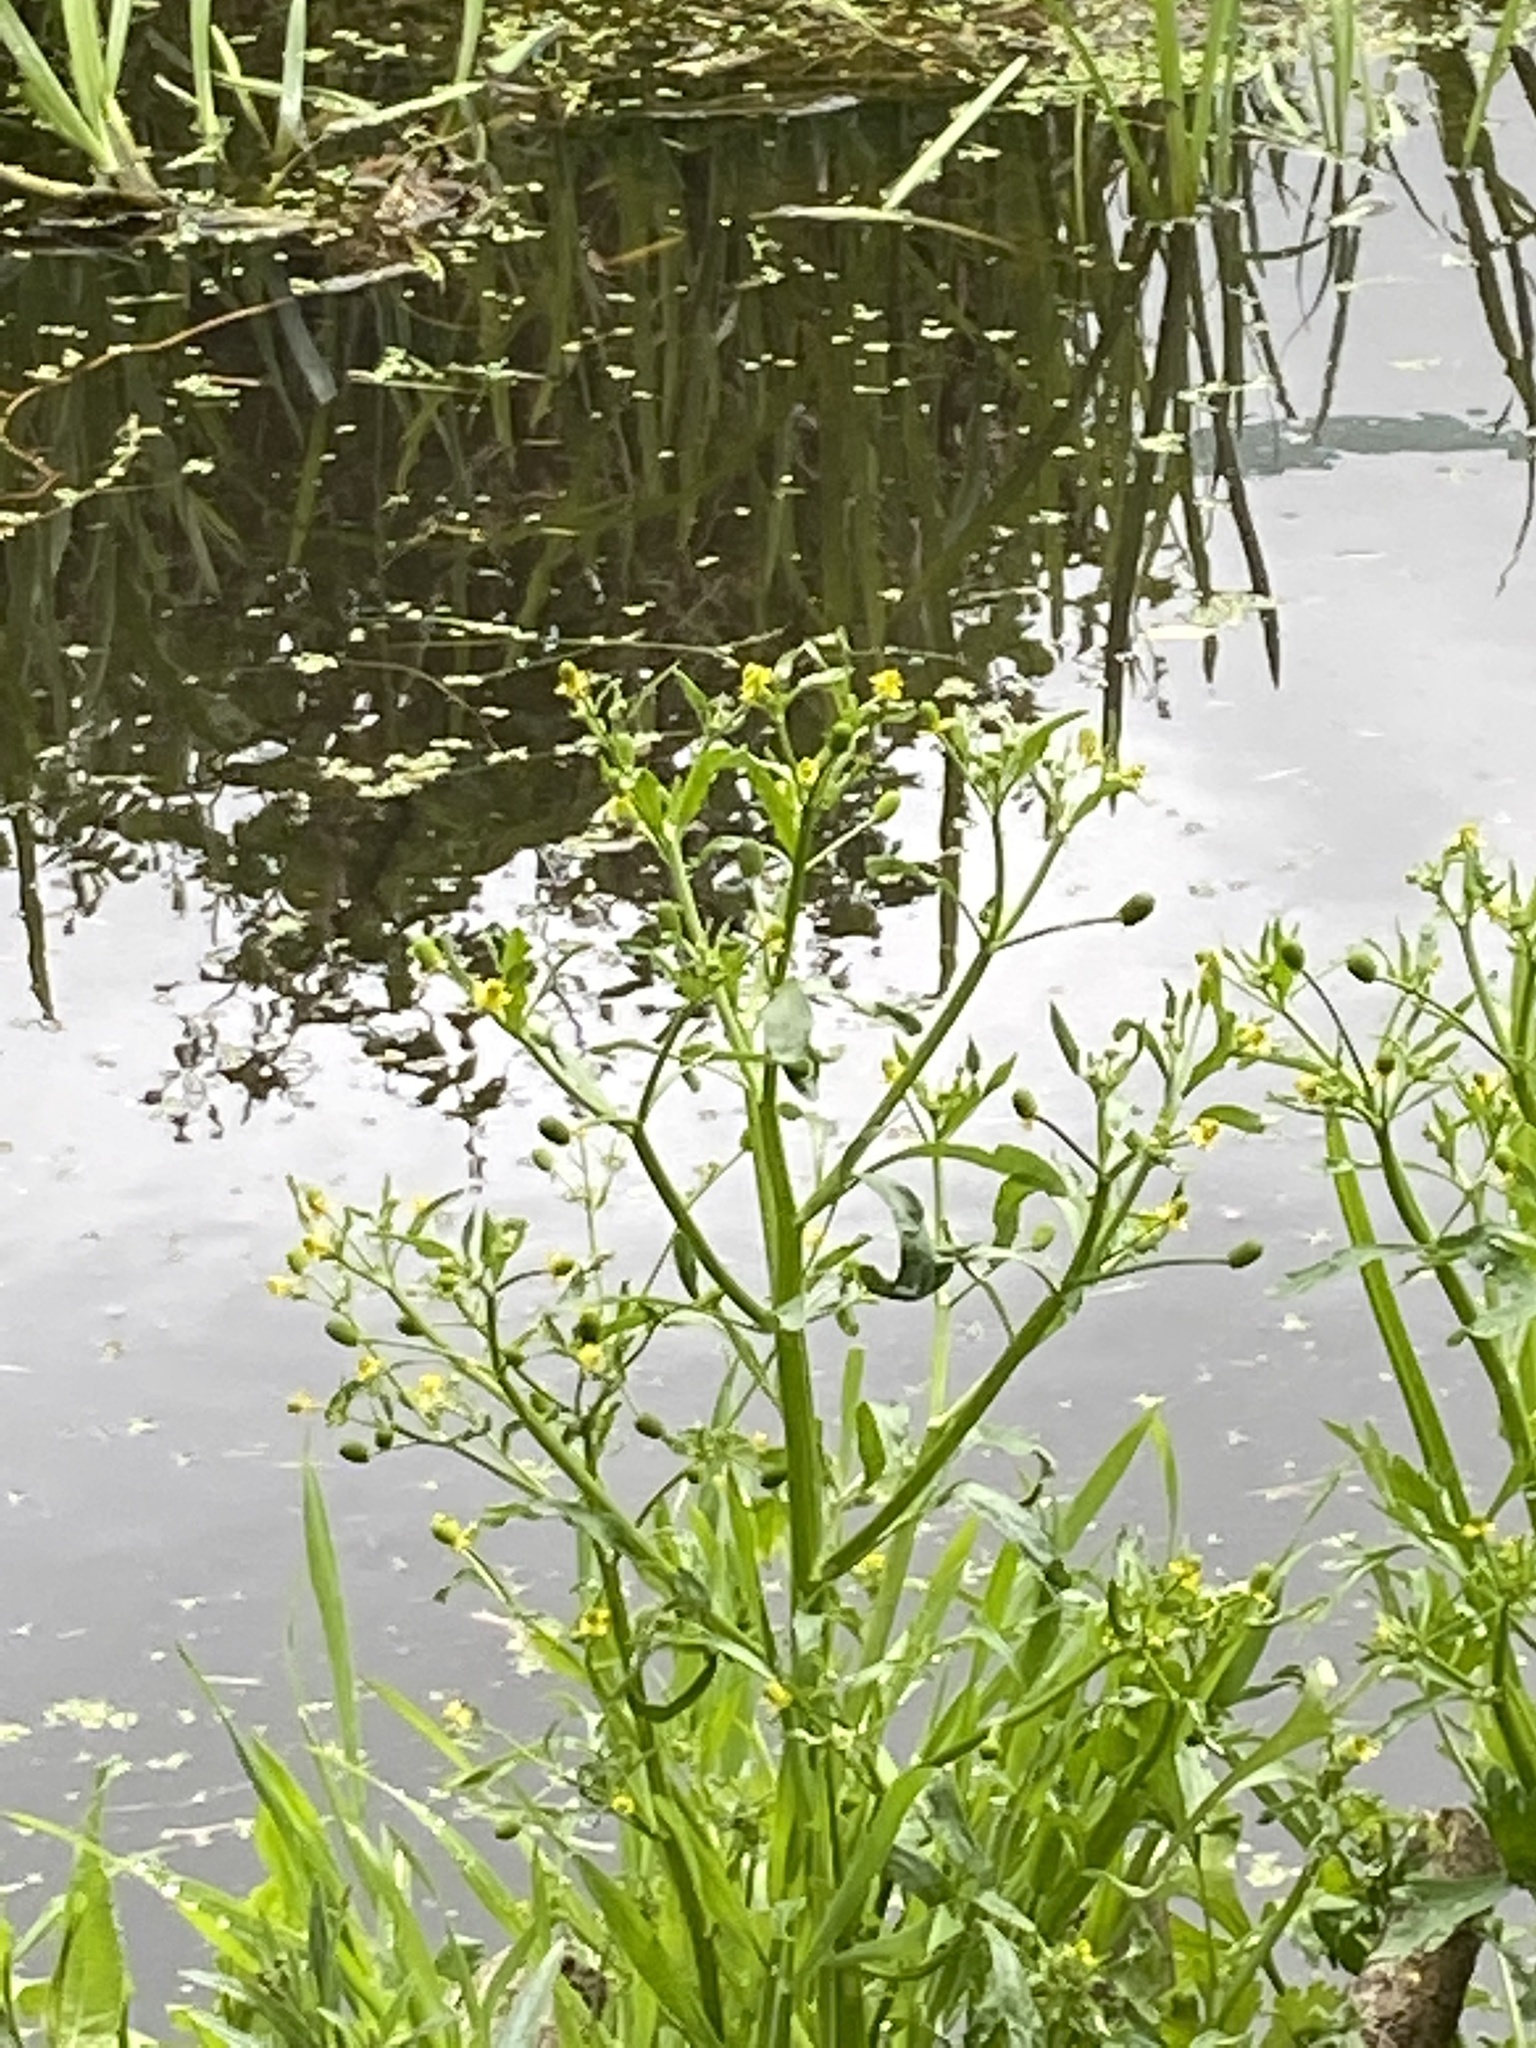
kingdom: Plantae
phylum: Tracheophyta
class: Magnoliopsida
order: Ranunculales
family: Ranunculaceae
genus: Ranunculus
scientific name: Ranunculus sceleratus
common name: Celery-leaved buttercup
